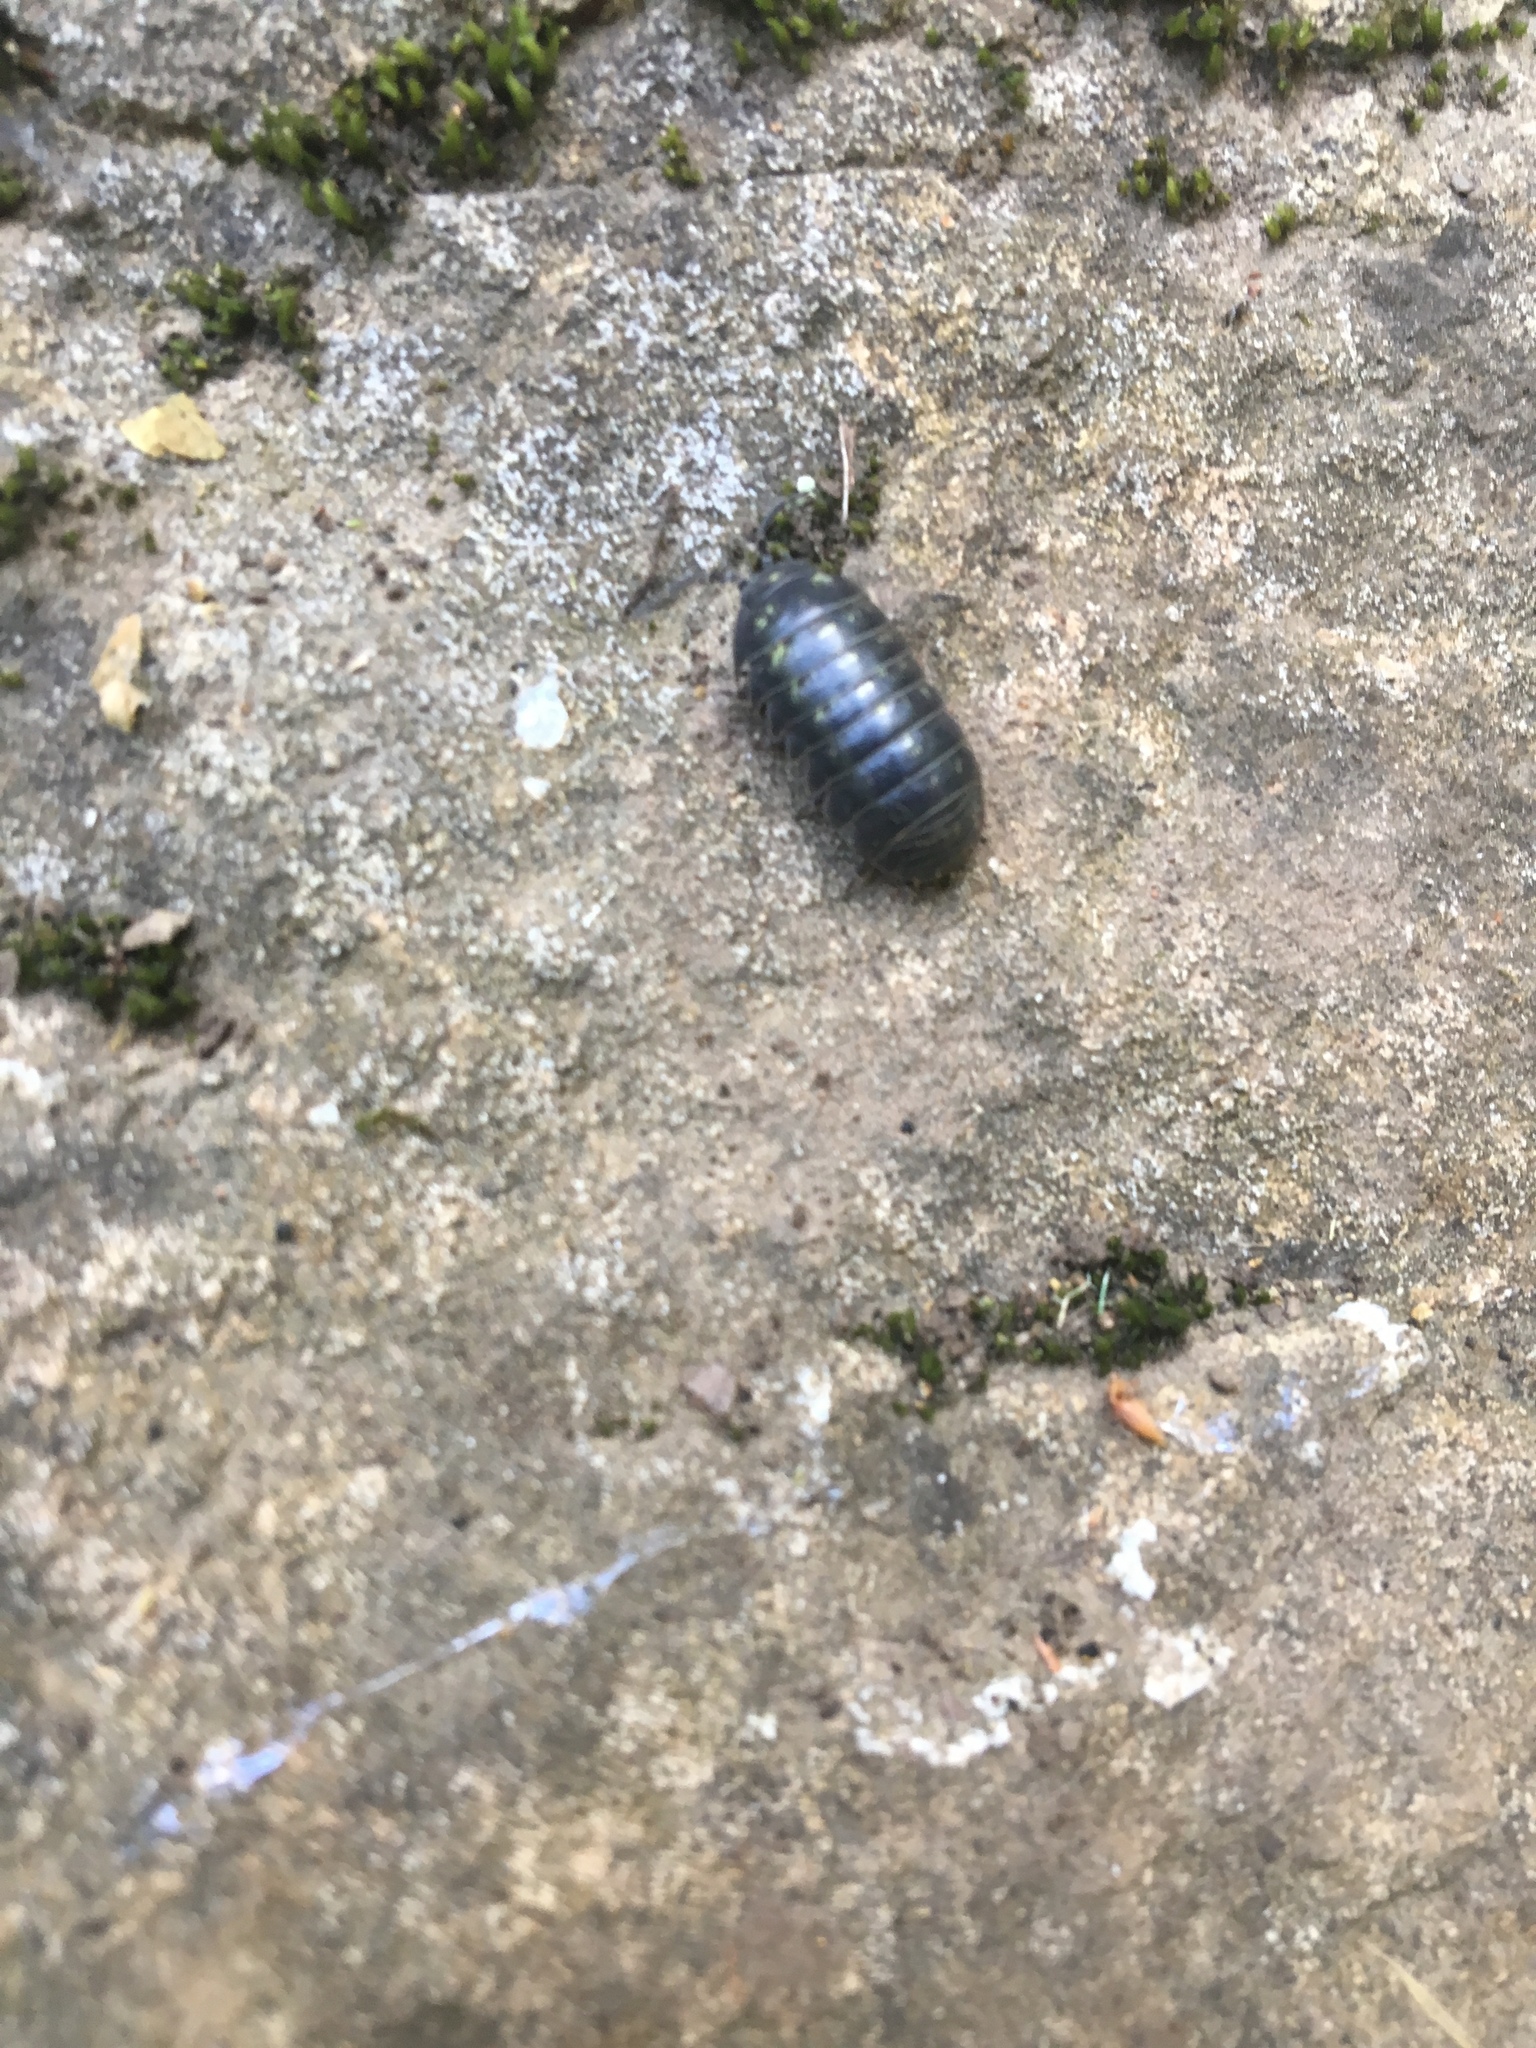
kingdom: Animalia
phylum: Arthropoda
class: Malacostraca
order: Isopoda
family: Armadillidiidae
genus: Armadillidium
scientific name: Armadillidium vulgare
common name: Common pill woodlouse
